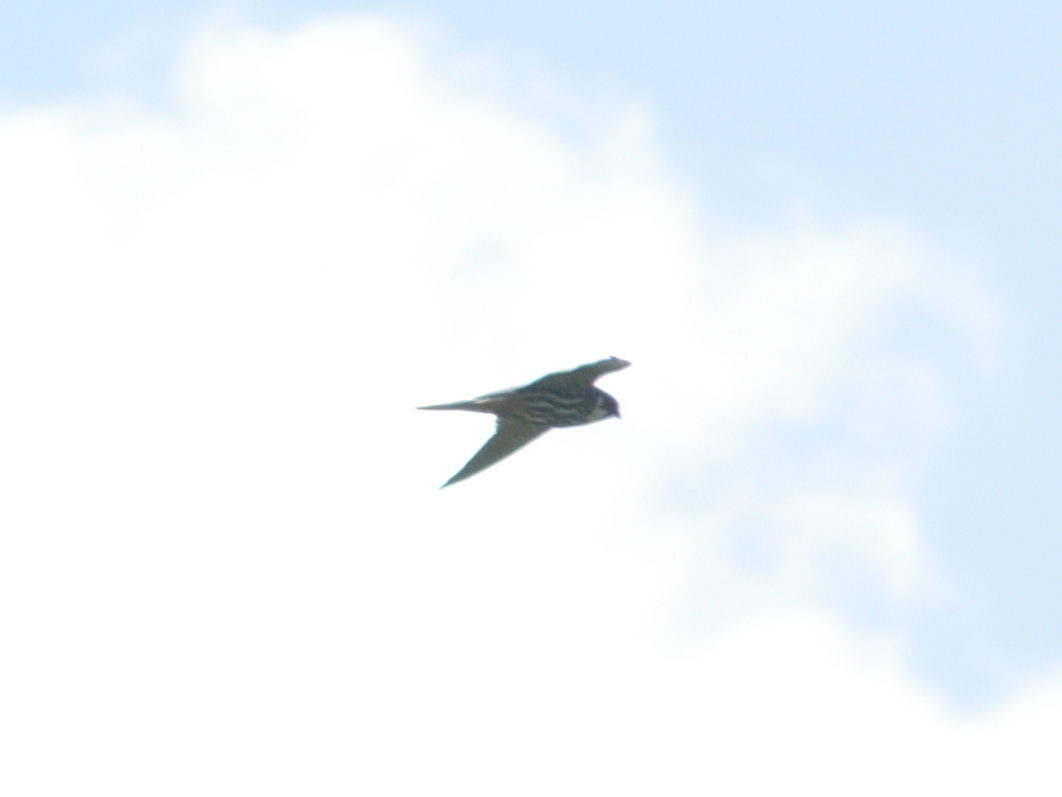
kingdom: Animalia
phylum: Chordata
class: Aves
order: Falconiformes
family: Falconidae
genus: Falco
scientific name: Falco subbuteo
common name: Eurasian hobby
